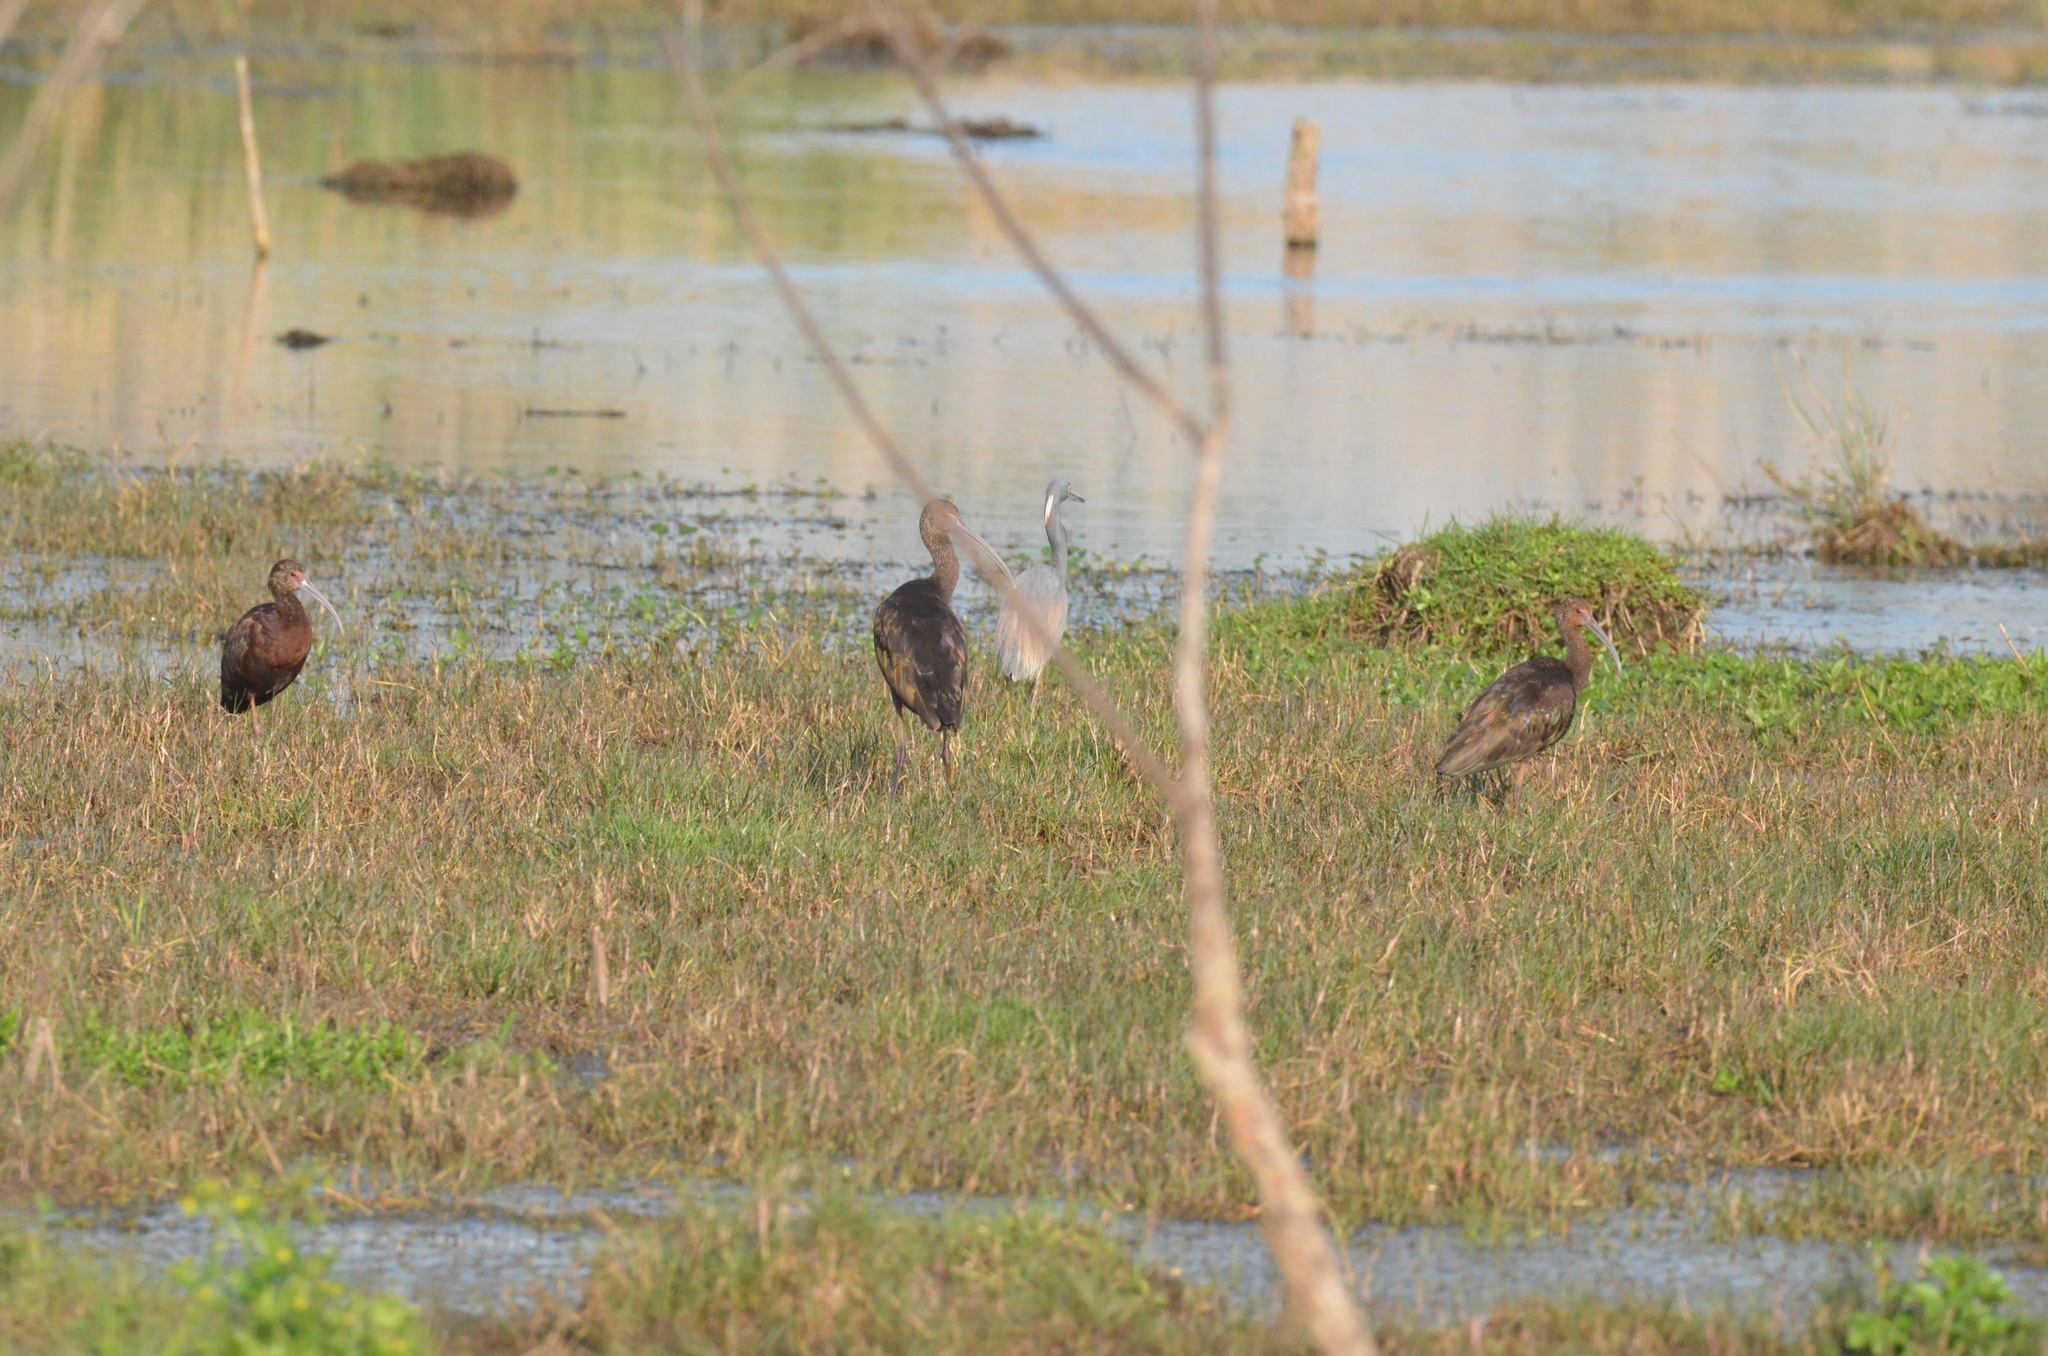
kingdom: Animalia
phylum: Chordata
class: Aves
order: Pelecaniformes
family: Ardeidae
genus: Egretta
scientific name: Egretta tricolor
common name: Tricolored heron
